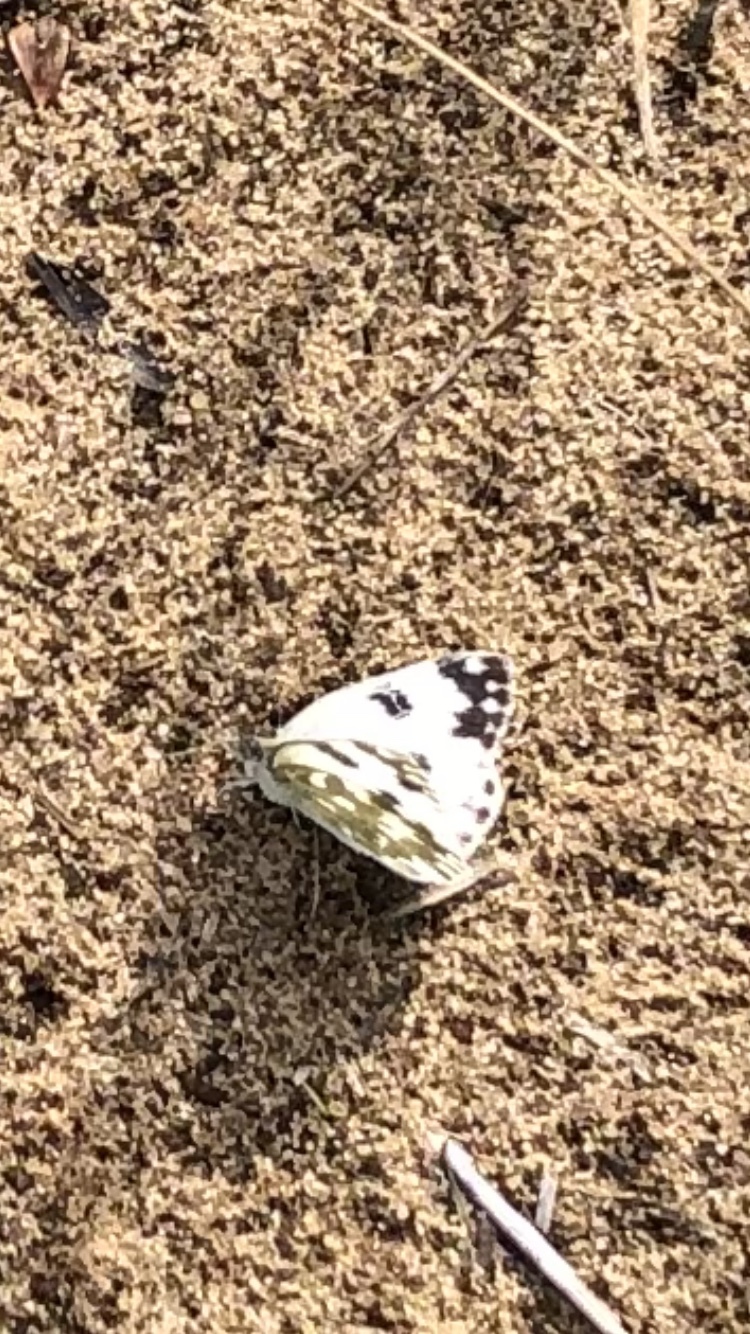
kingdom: Animalia
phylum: Arthropoda
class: Insecta
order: Lepidoptera
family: Pieridae
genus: Pontia
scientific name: Pontia edusa
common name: Eastern bath white
